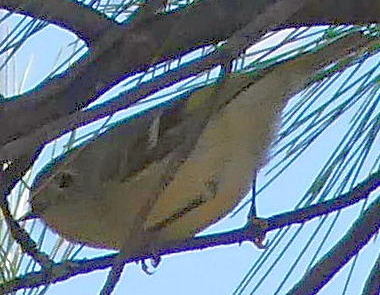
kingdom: Animalia
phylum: Chordata
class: Aves
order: Passeriformes
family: Regulidae
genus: Regulus
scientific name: Regulus calendula
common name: Ruby-crowned kinglet
